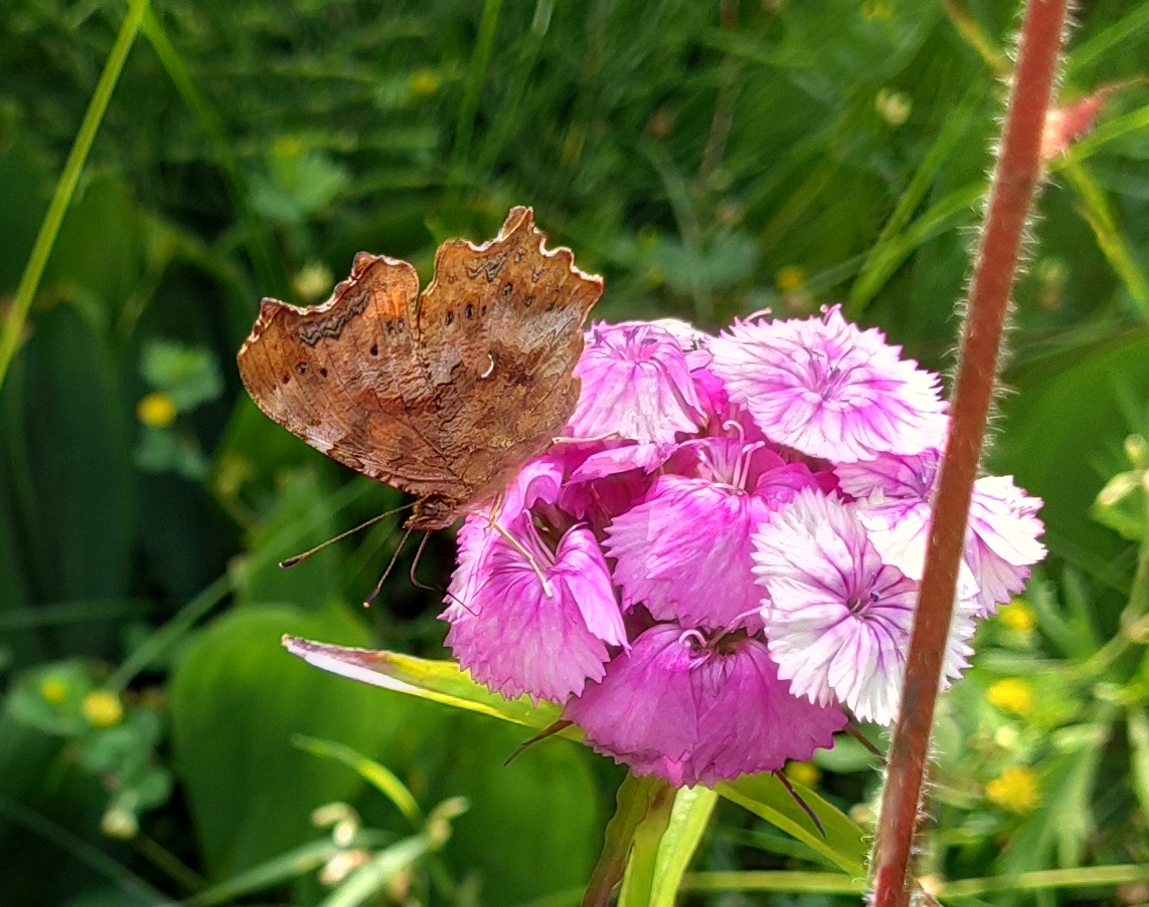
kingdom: Animalia
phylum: Arthropoda
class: Insecta
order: Lepidoptera
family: Nymphalidae
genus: Polygonia
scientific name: Polygonia c-album
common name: Comma
